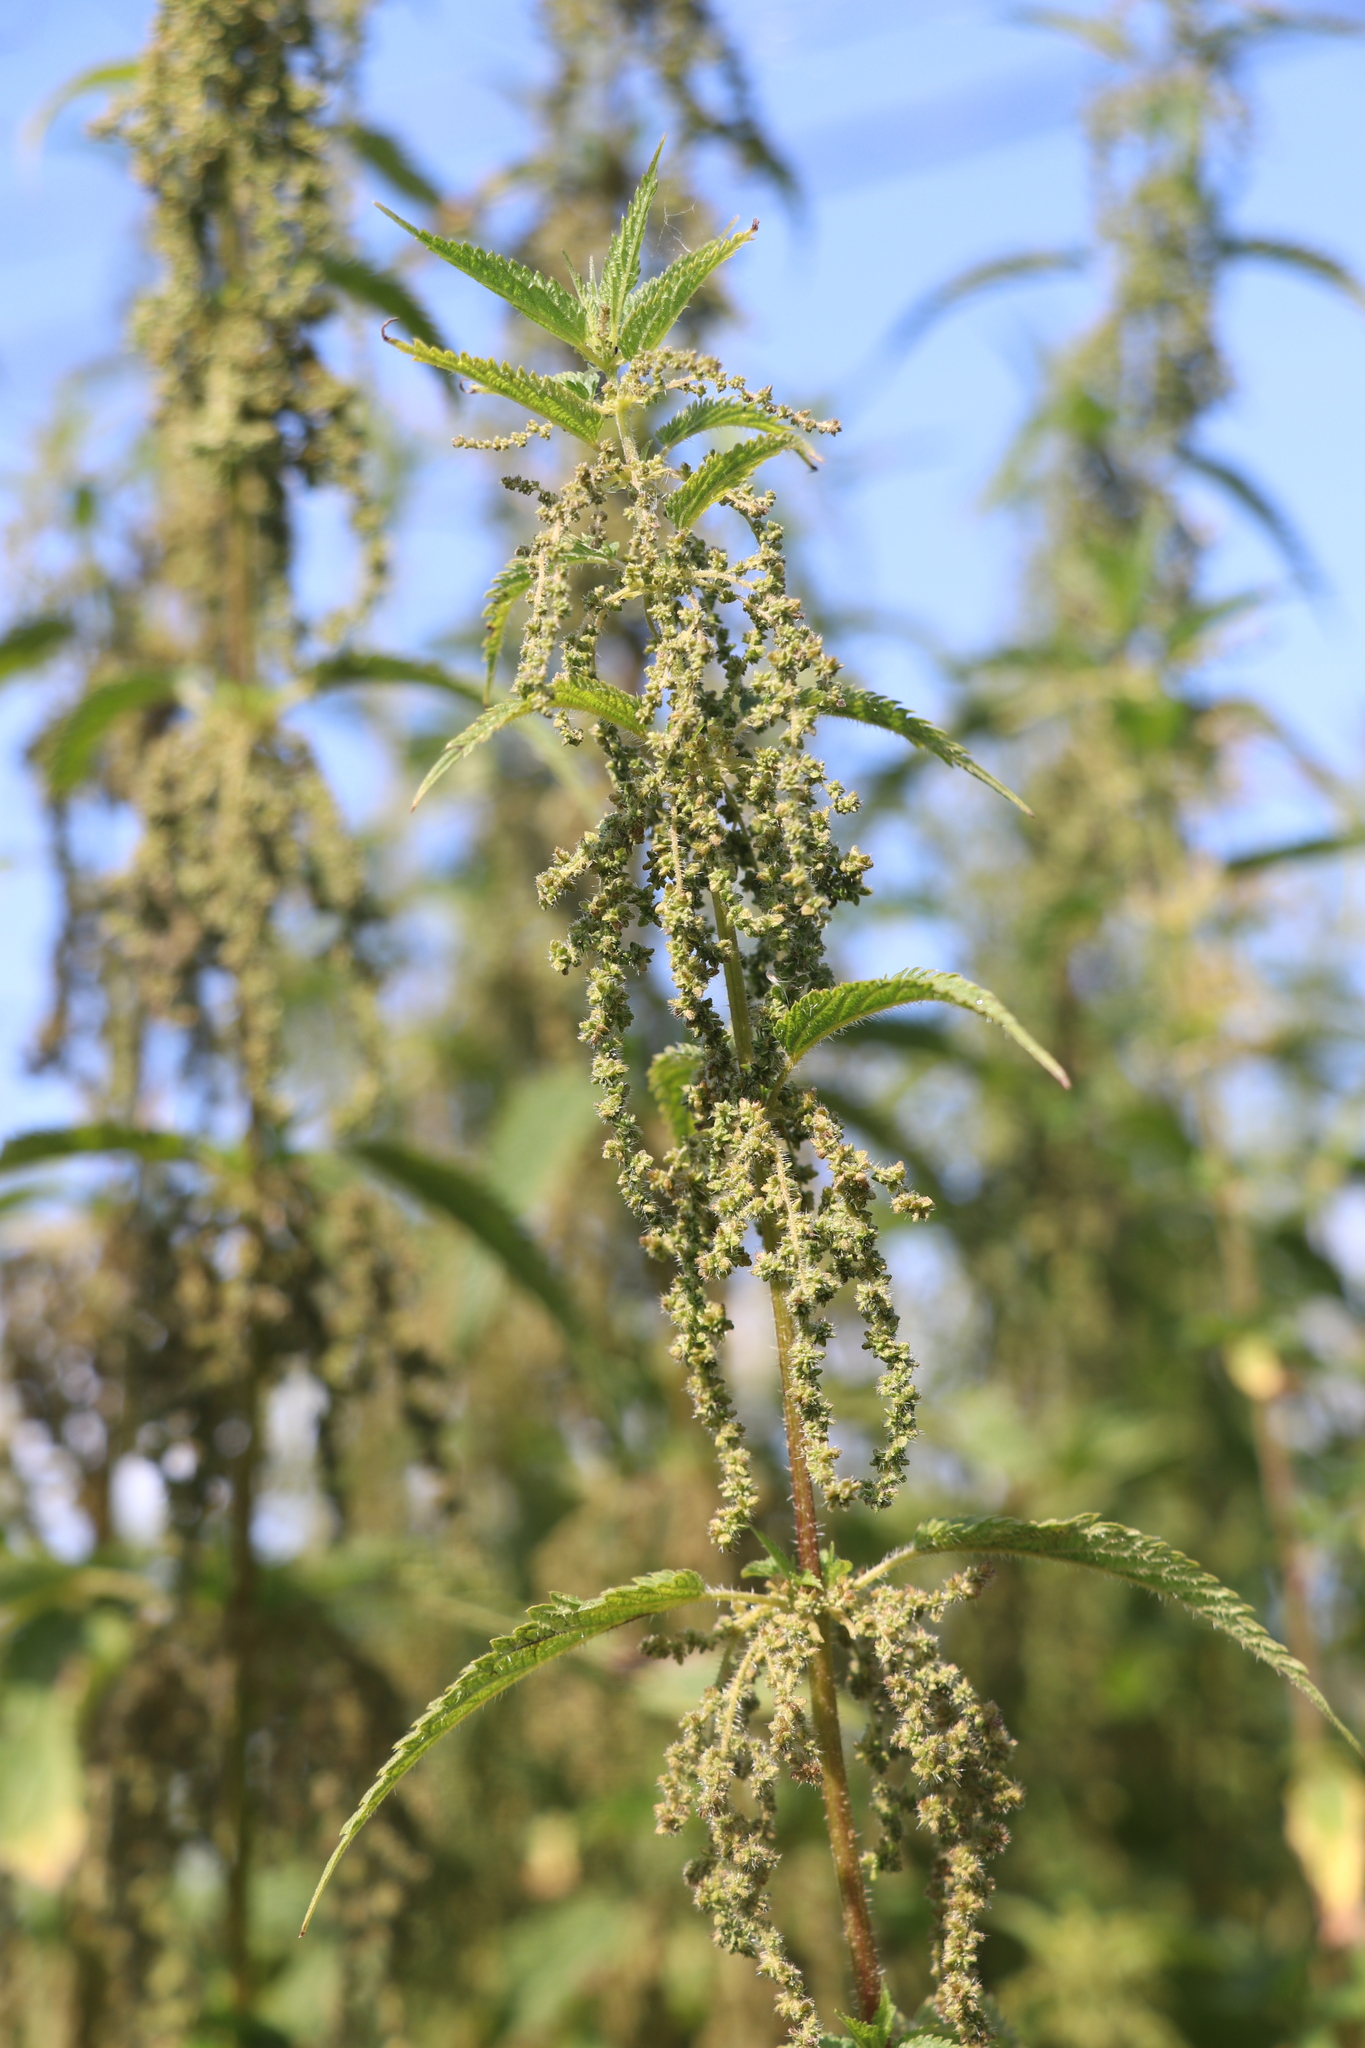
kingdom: Plantae
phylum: Tracheophyta
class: Magnoliopsida
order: Rosales
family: Urticaceae
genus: Urtica
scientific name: Urtica dioica
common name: Common nettle
